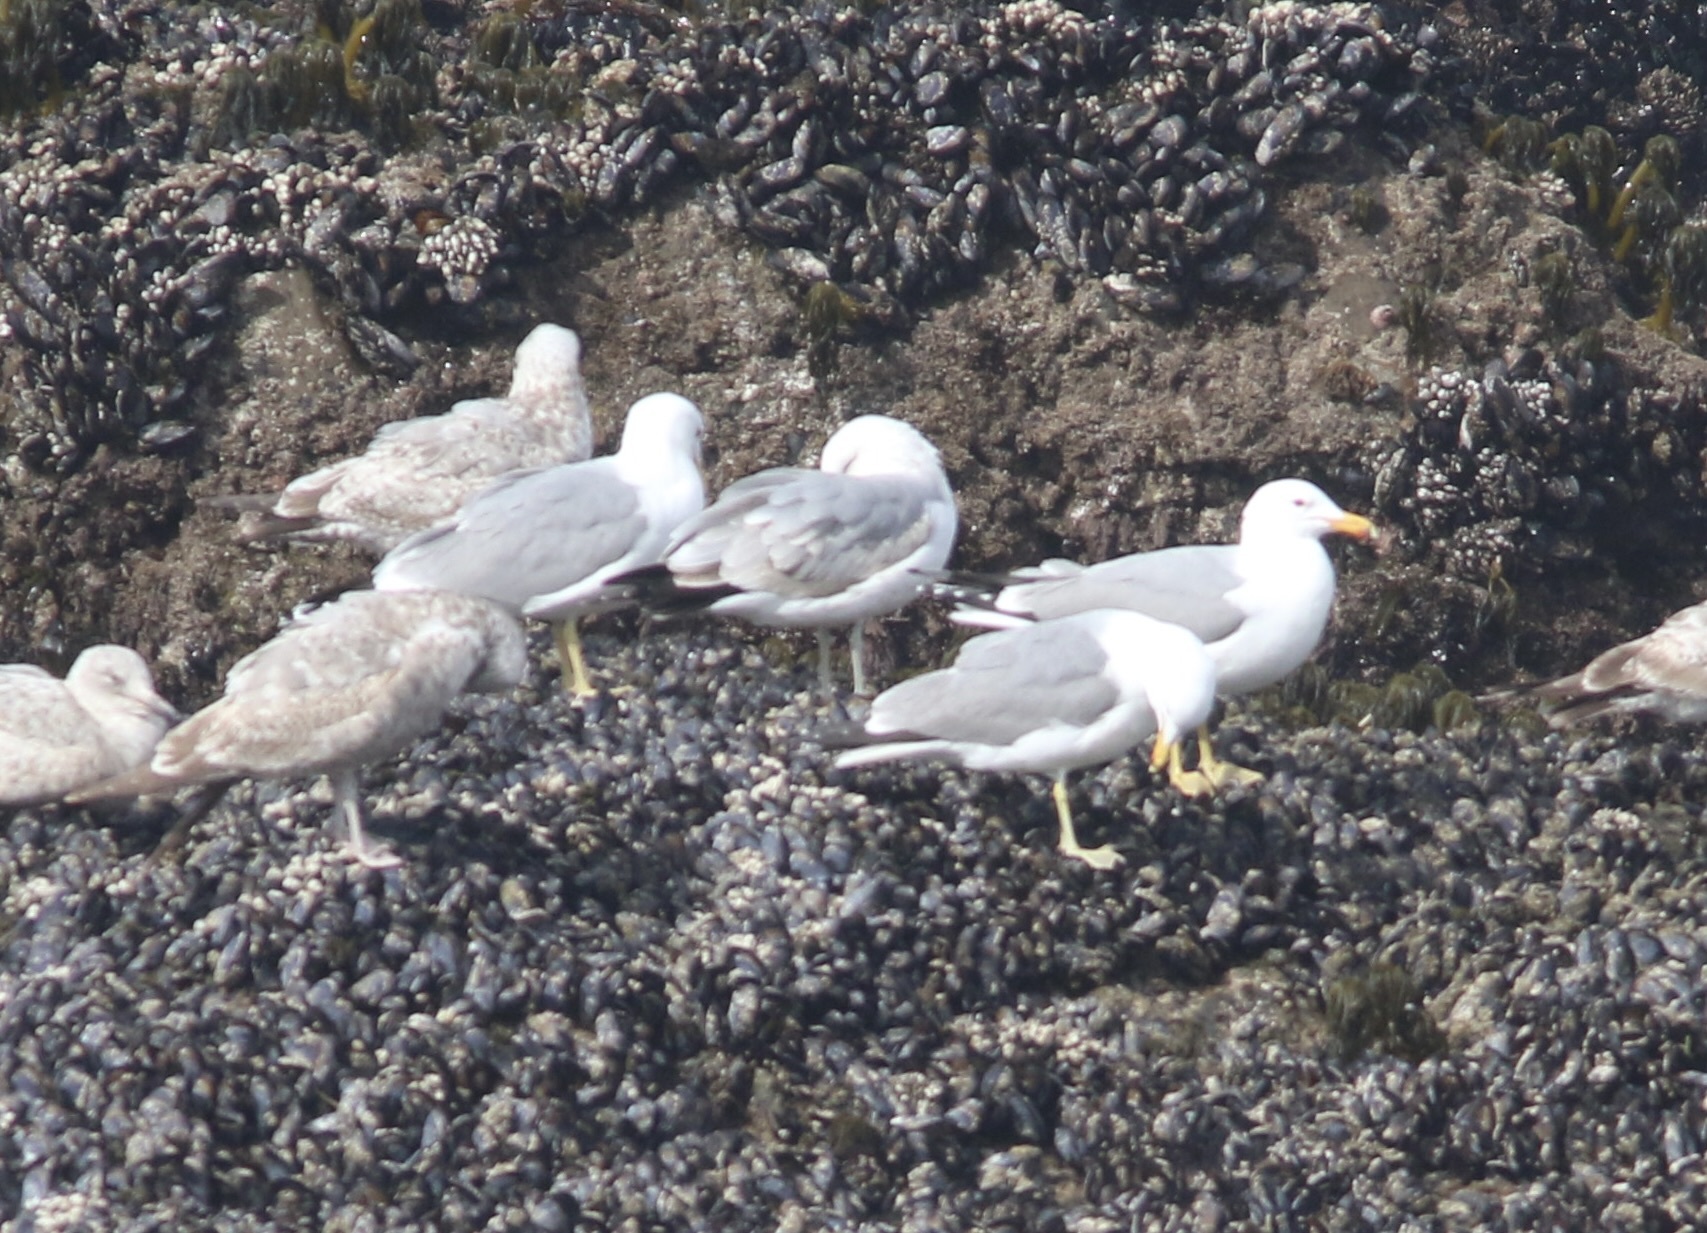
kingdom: Animalia
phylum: Chordata
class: Aves
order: Charadriiformes
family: Laridae
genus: Larus
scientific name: Larus californicus
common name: California gull
